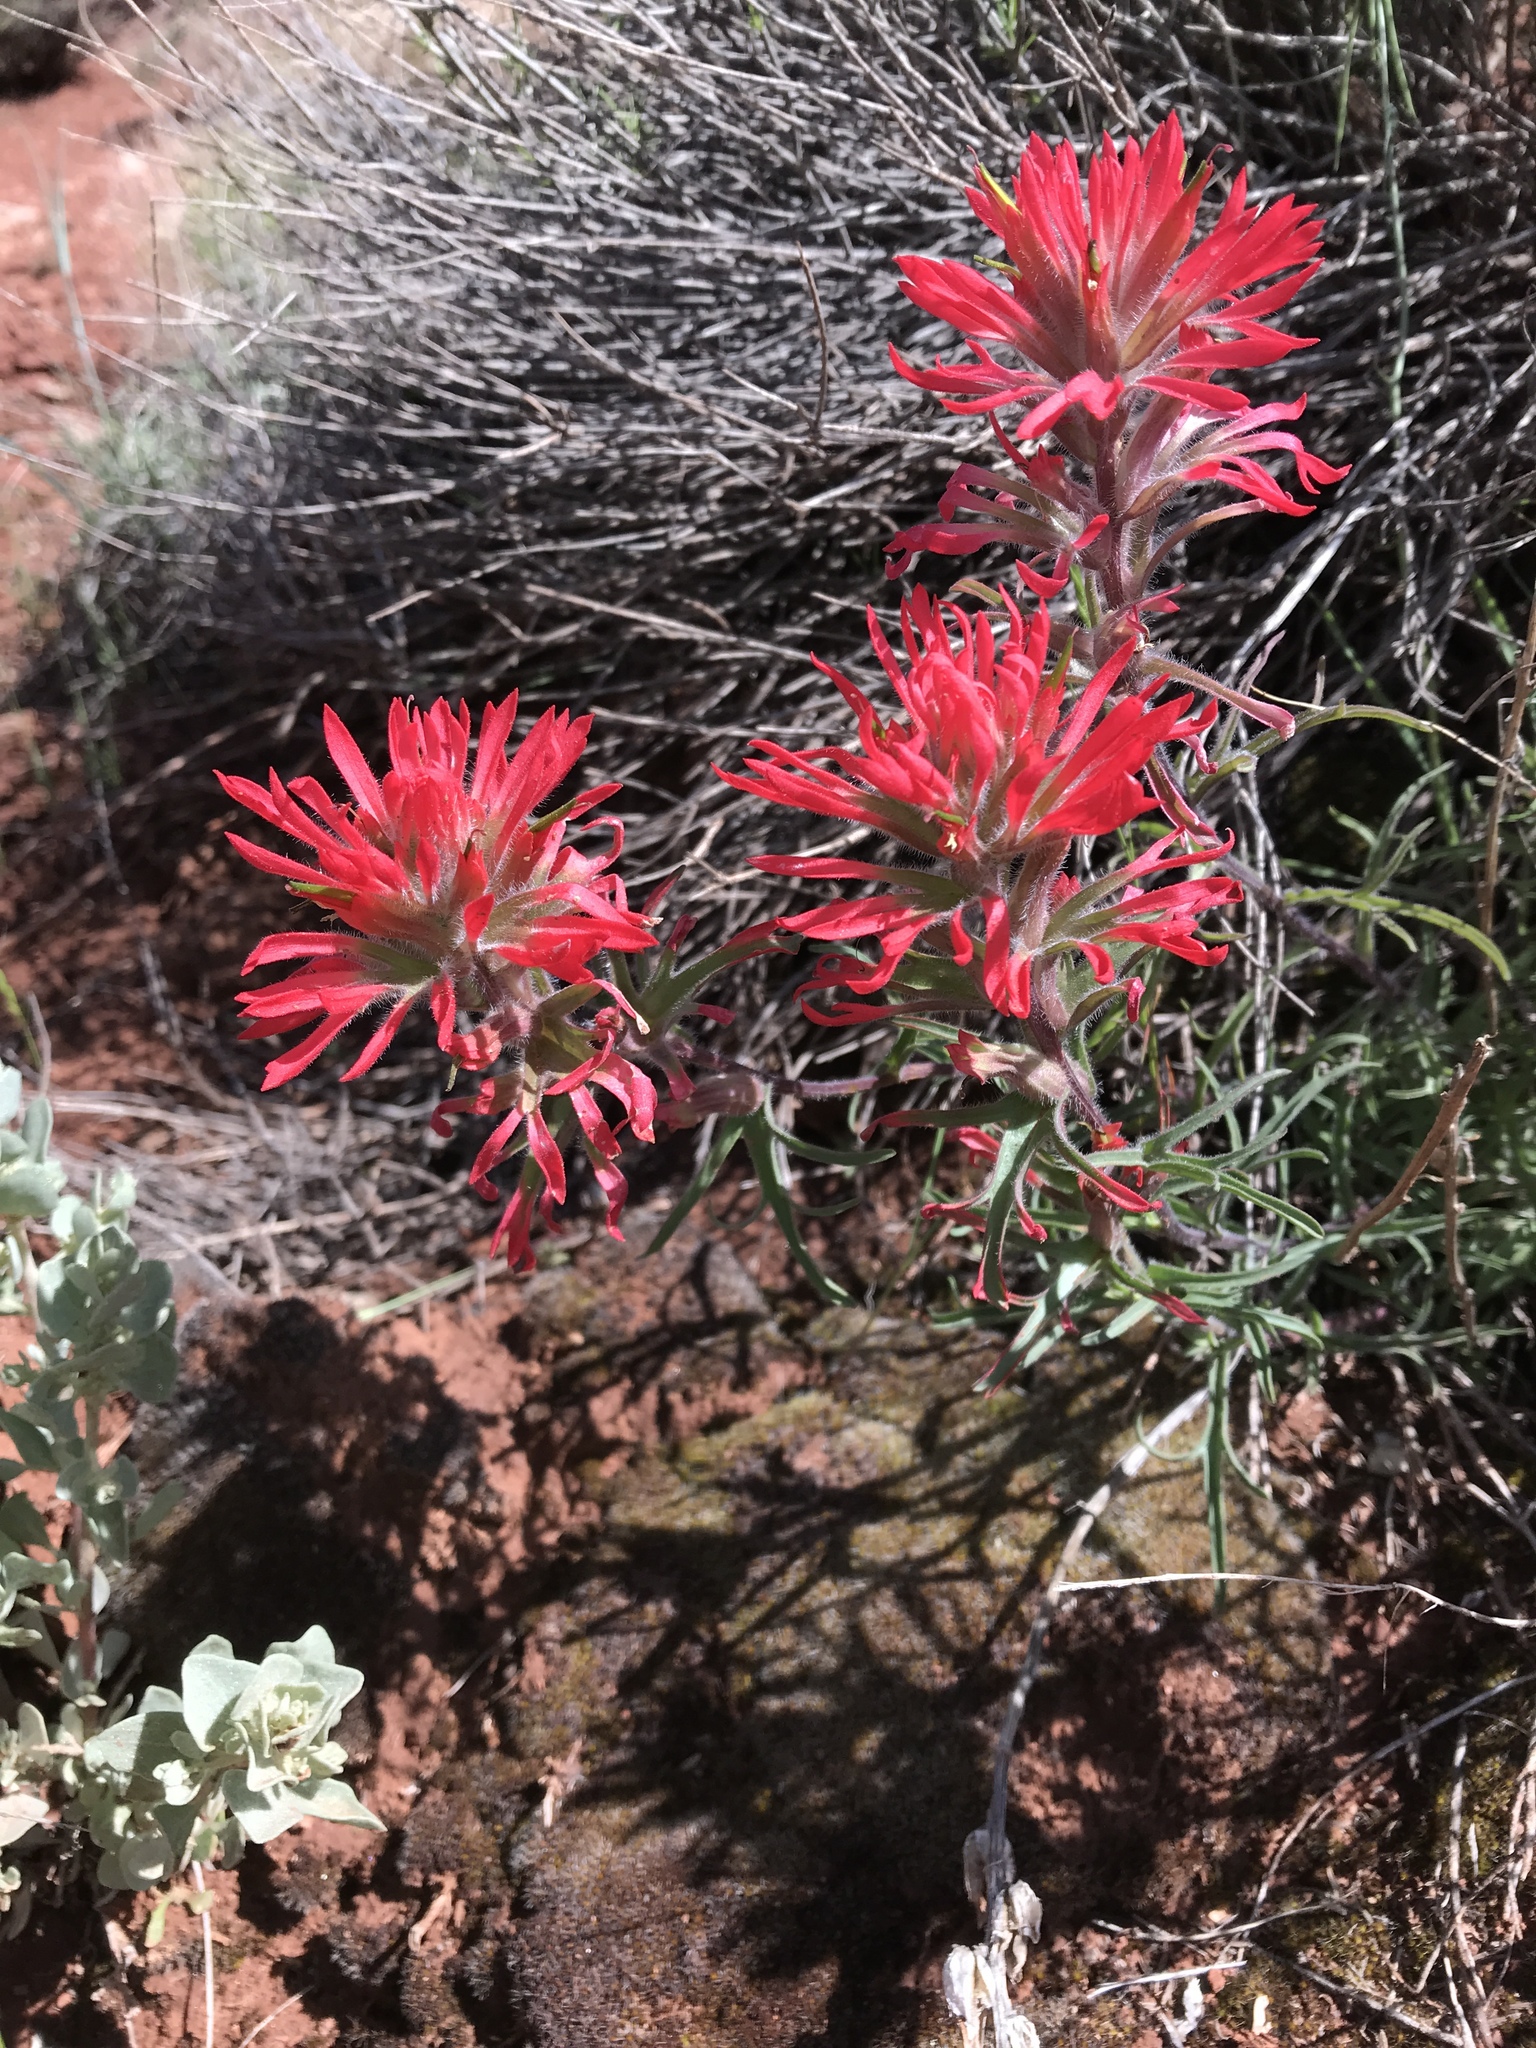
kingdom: Plantae
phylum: Tracheophyta
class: Magnoliopsida
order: Lamiales
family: Orobanchaceae
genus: Castilleja
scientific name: Castilleja chromosa
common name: Desert paintbrush
